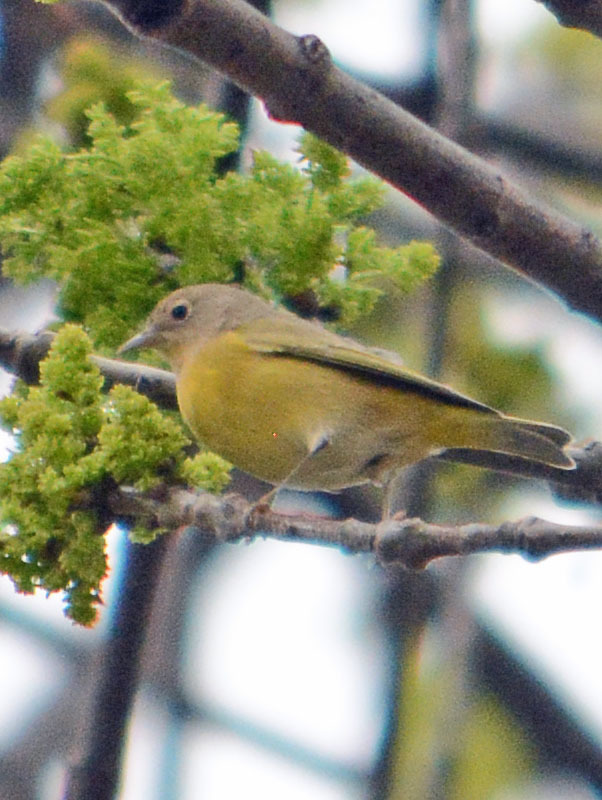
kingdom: Animalia
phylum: Chordata
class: Aves
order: Passeriformes
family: Parulidae
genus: Leiothlypis
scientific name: Leiothlypis ruficapilla
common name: Nashville warbler
